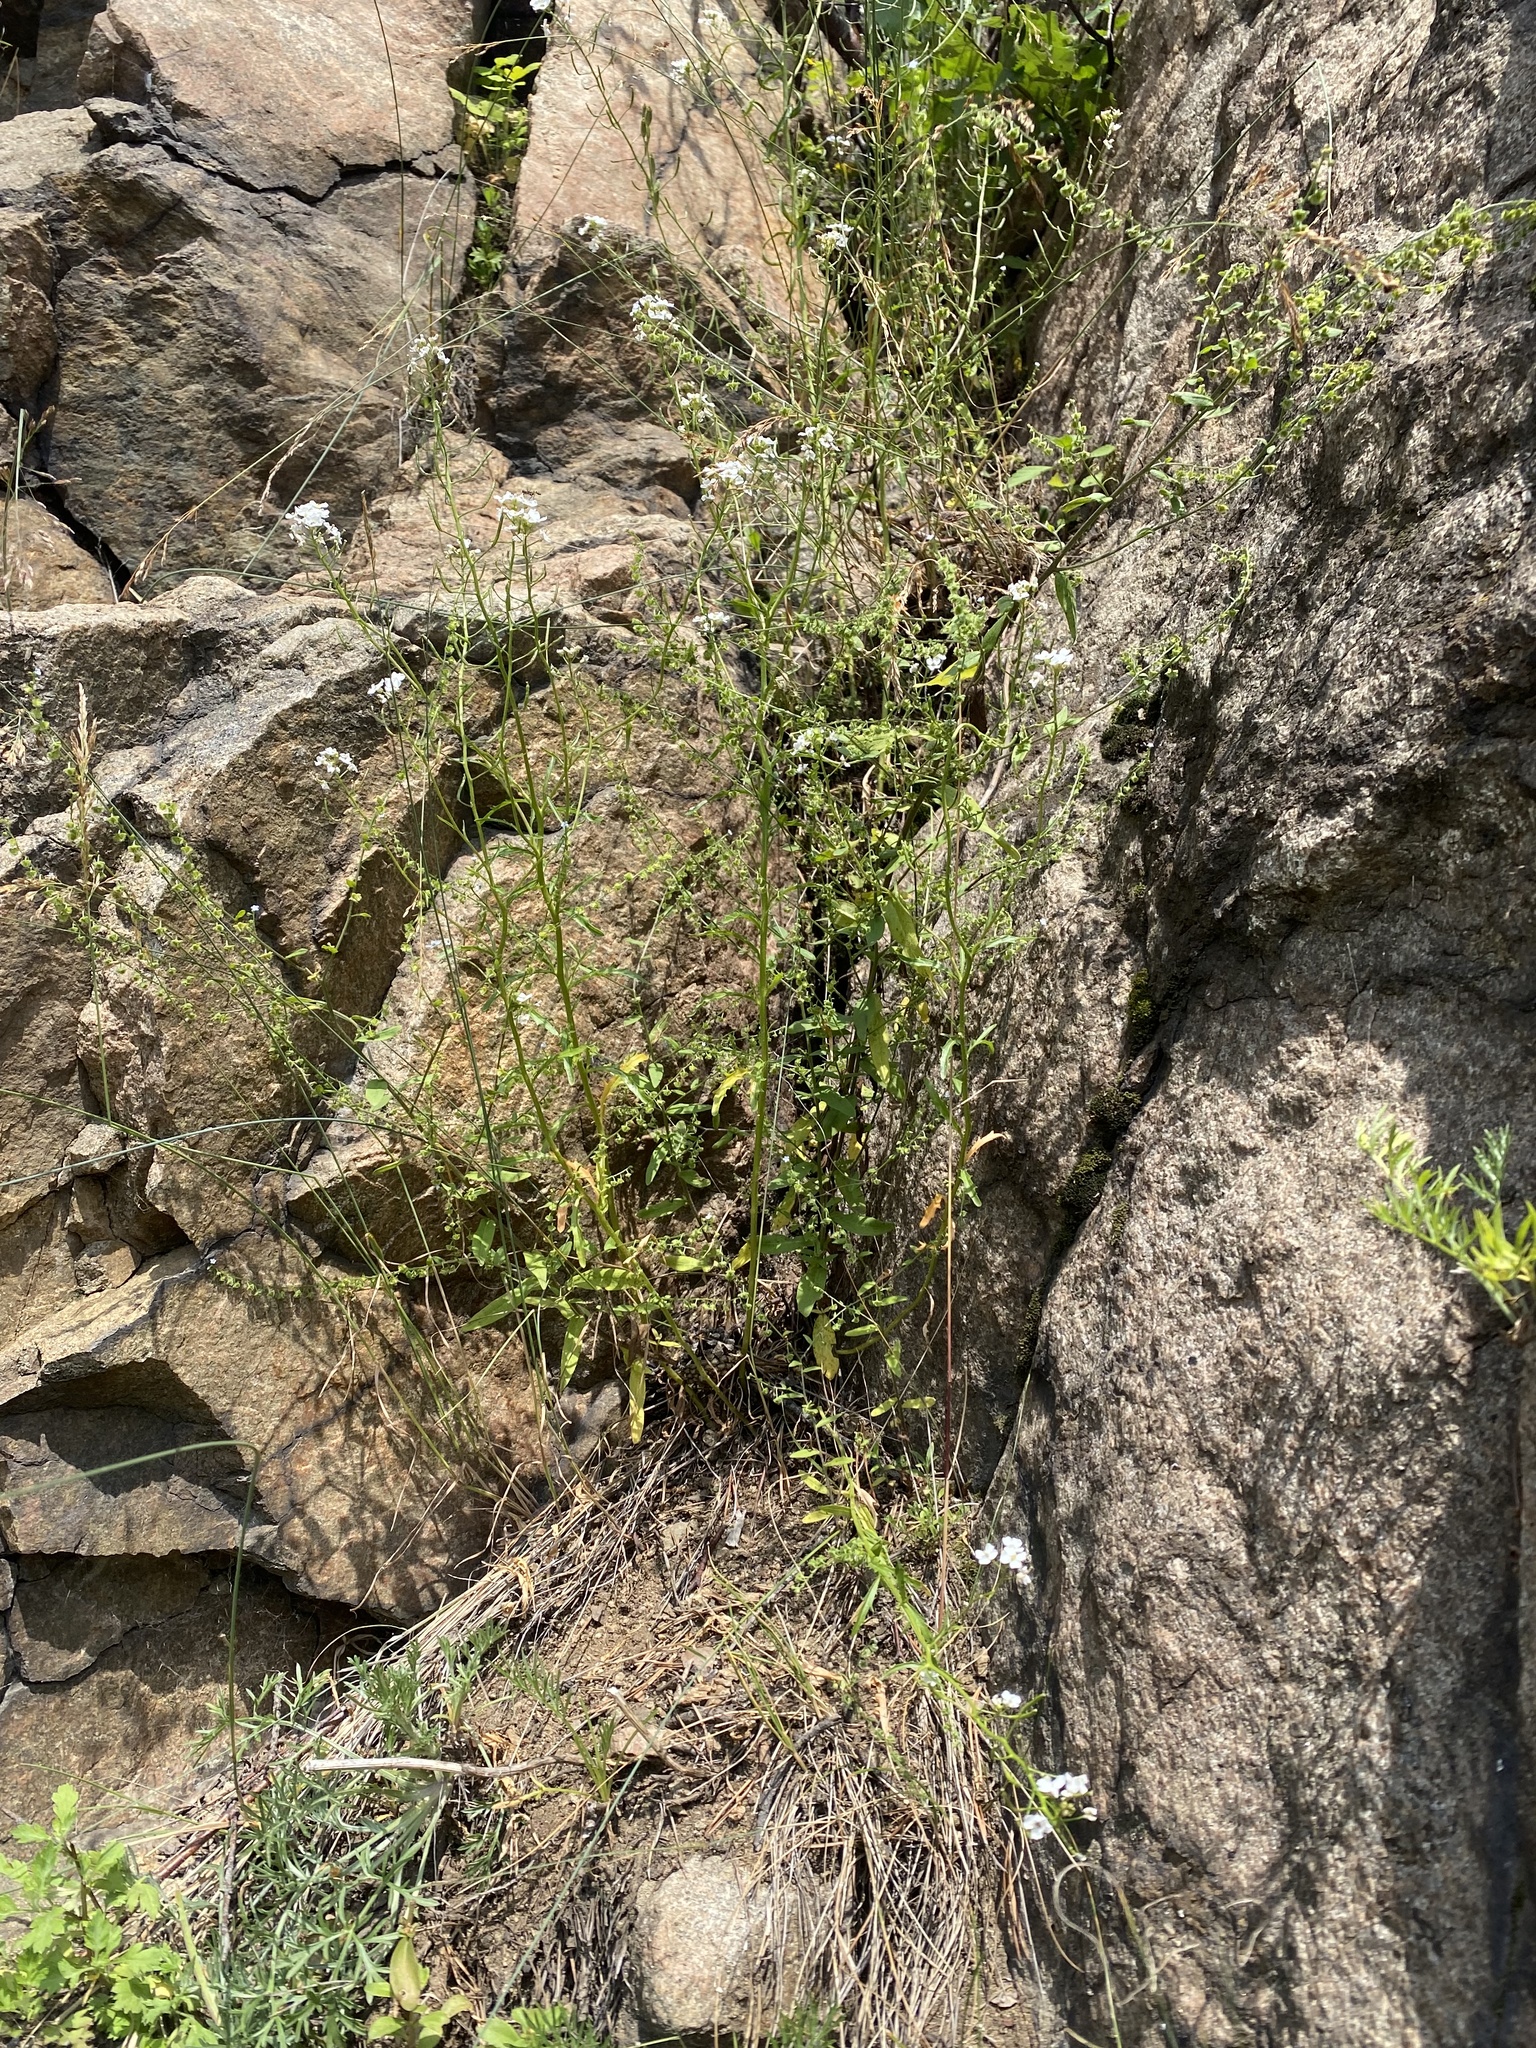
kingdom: Plantae
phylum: Tracheophyta
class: Magnoliopsida
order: Brassicales
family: Brassicaceae
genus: Dontostemon
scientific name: Dontostemon pinnatifidus
